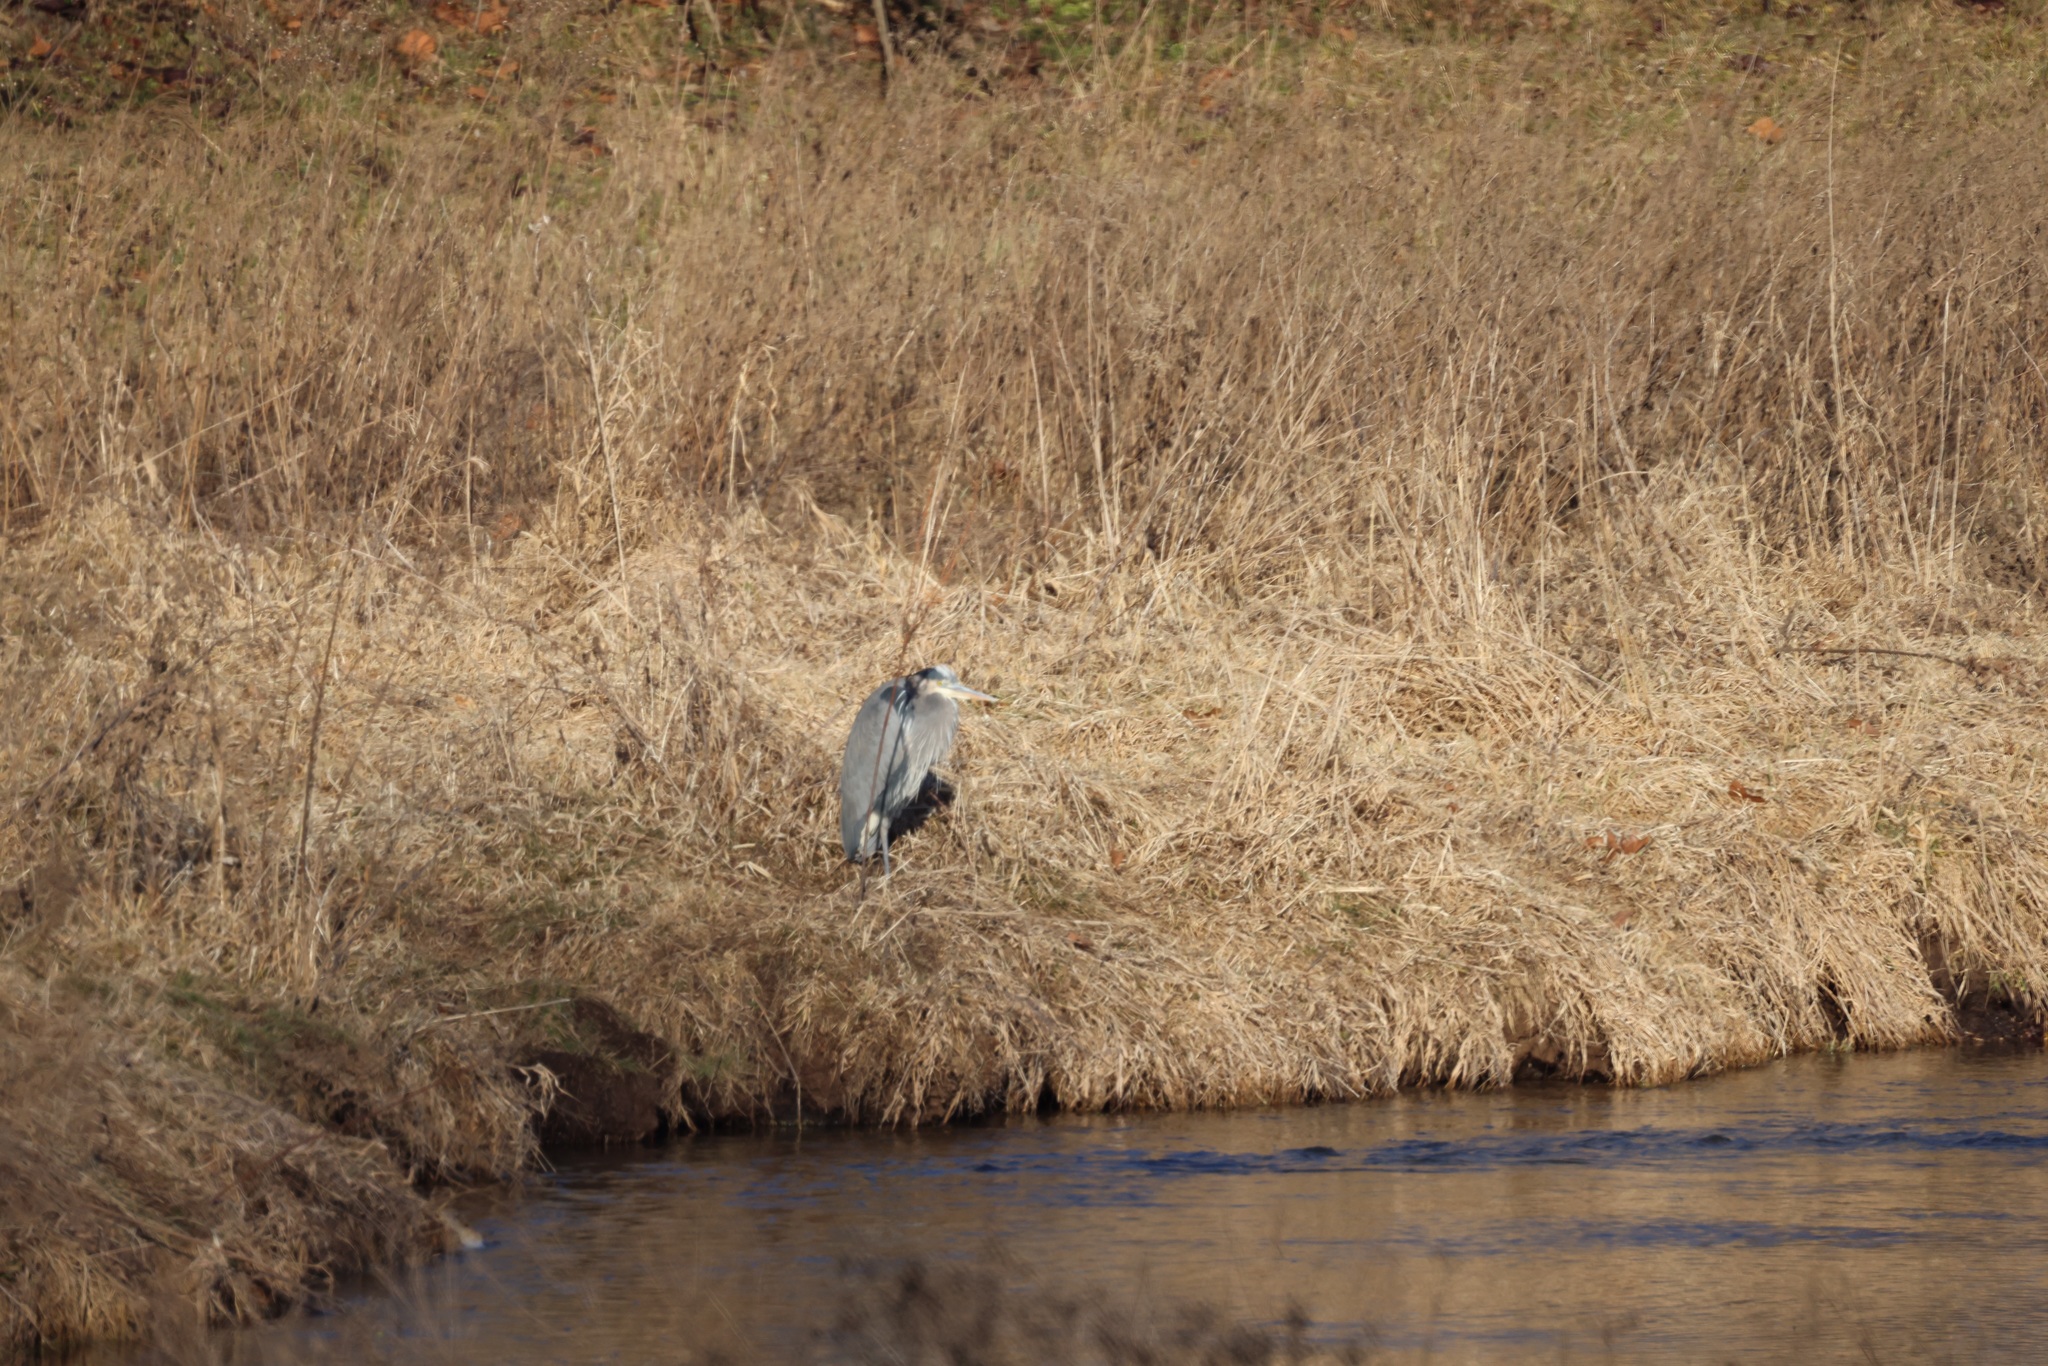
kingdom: Animalia
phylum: Chordata
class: Aves
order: Pelecaniformes
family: Ardeidae
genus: Ardea
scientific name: Ardea herodias
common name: Great blue heron
